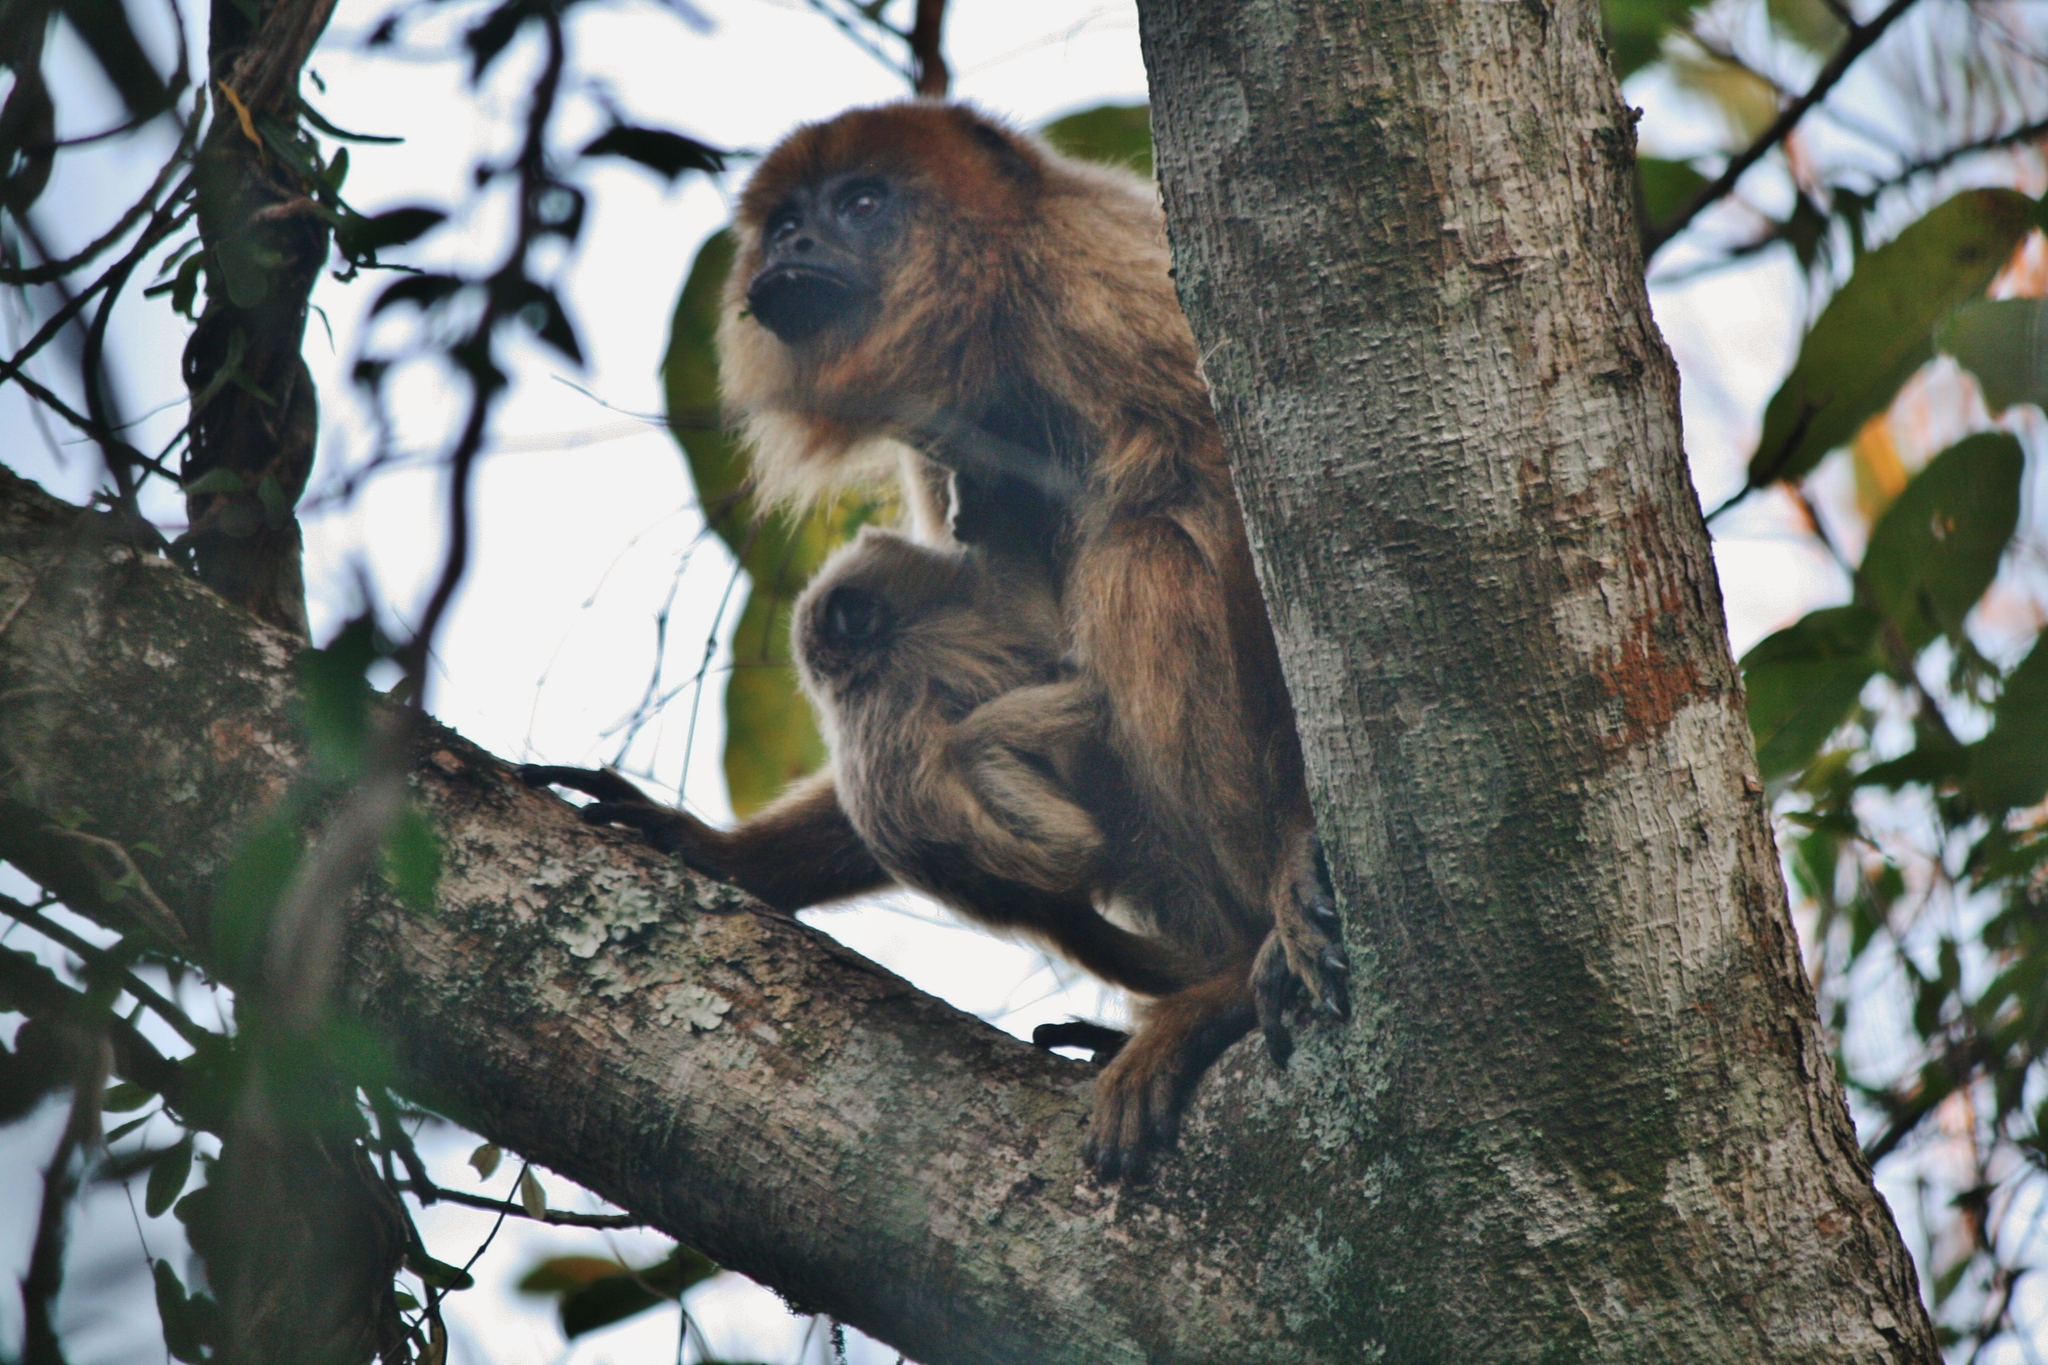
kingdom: Animalia
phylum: Chordata
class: Mammalia
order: Primates
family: Atelidae
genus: Alouatta
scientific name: Alouatta caraya
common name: Black howler
